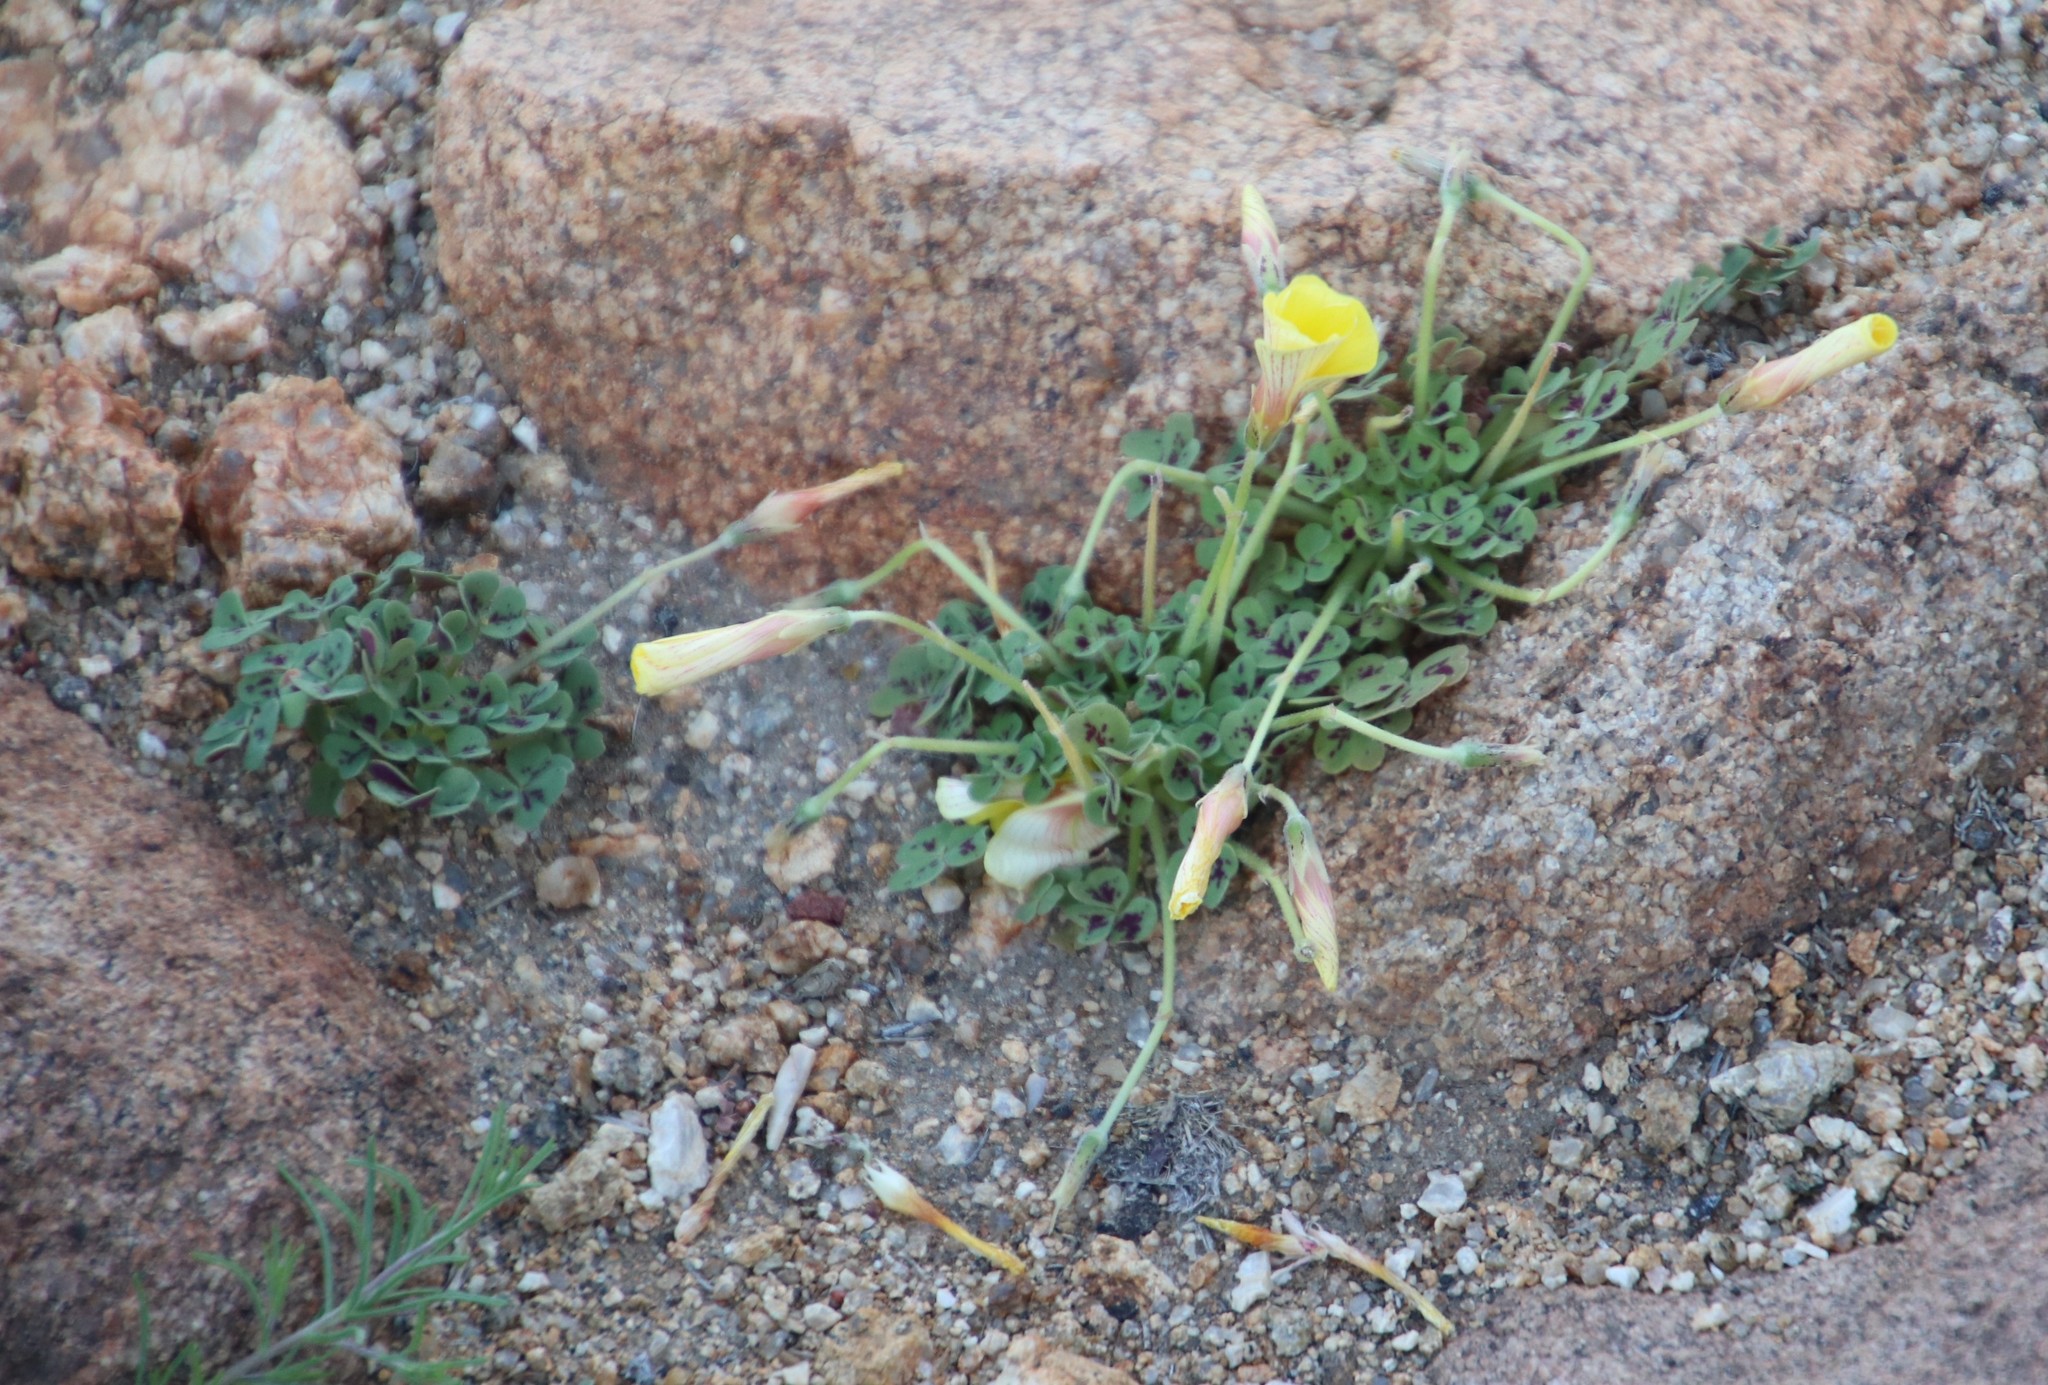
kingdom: Plantae
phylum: Tracheophyta
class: Magnoliopsida
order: Oxalidales
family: Oxalidaceae
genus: Oxalis
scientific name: Oxalis obtusa
